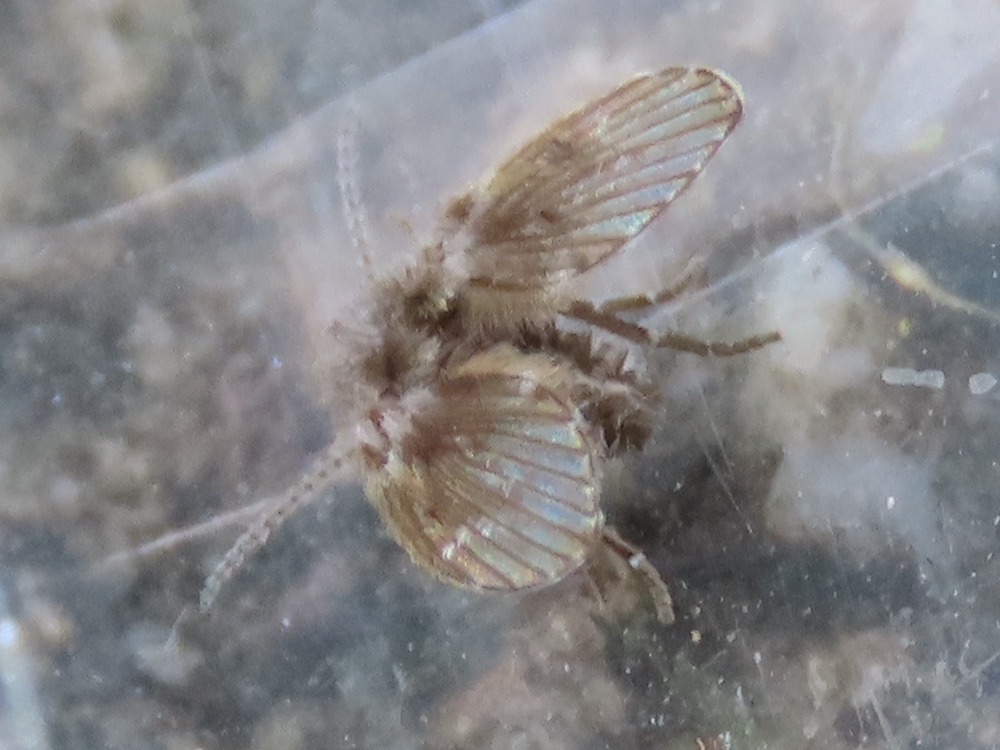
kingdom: Animalia
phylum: Arthropoda
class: Insecta
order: Diptera
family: Psychodidae
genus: Clogmia
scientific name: Clogmia albipunctatus
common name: White-spotted moth fly
